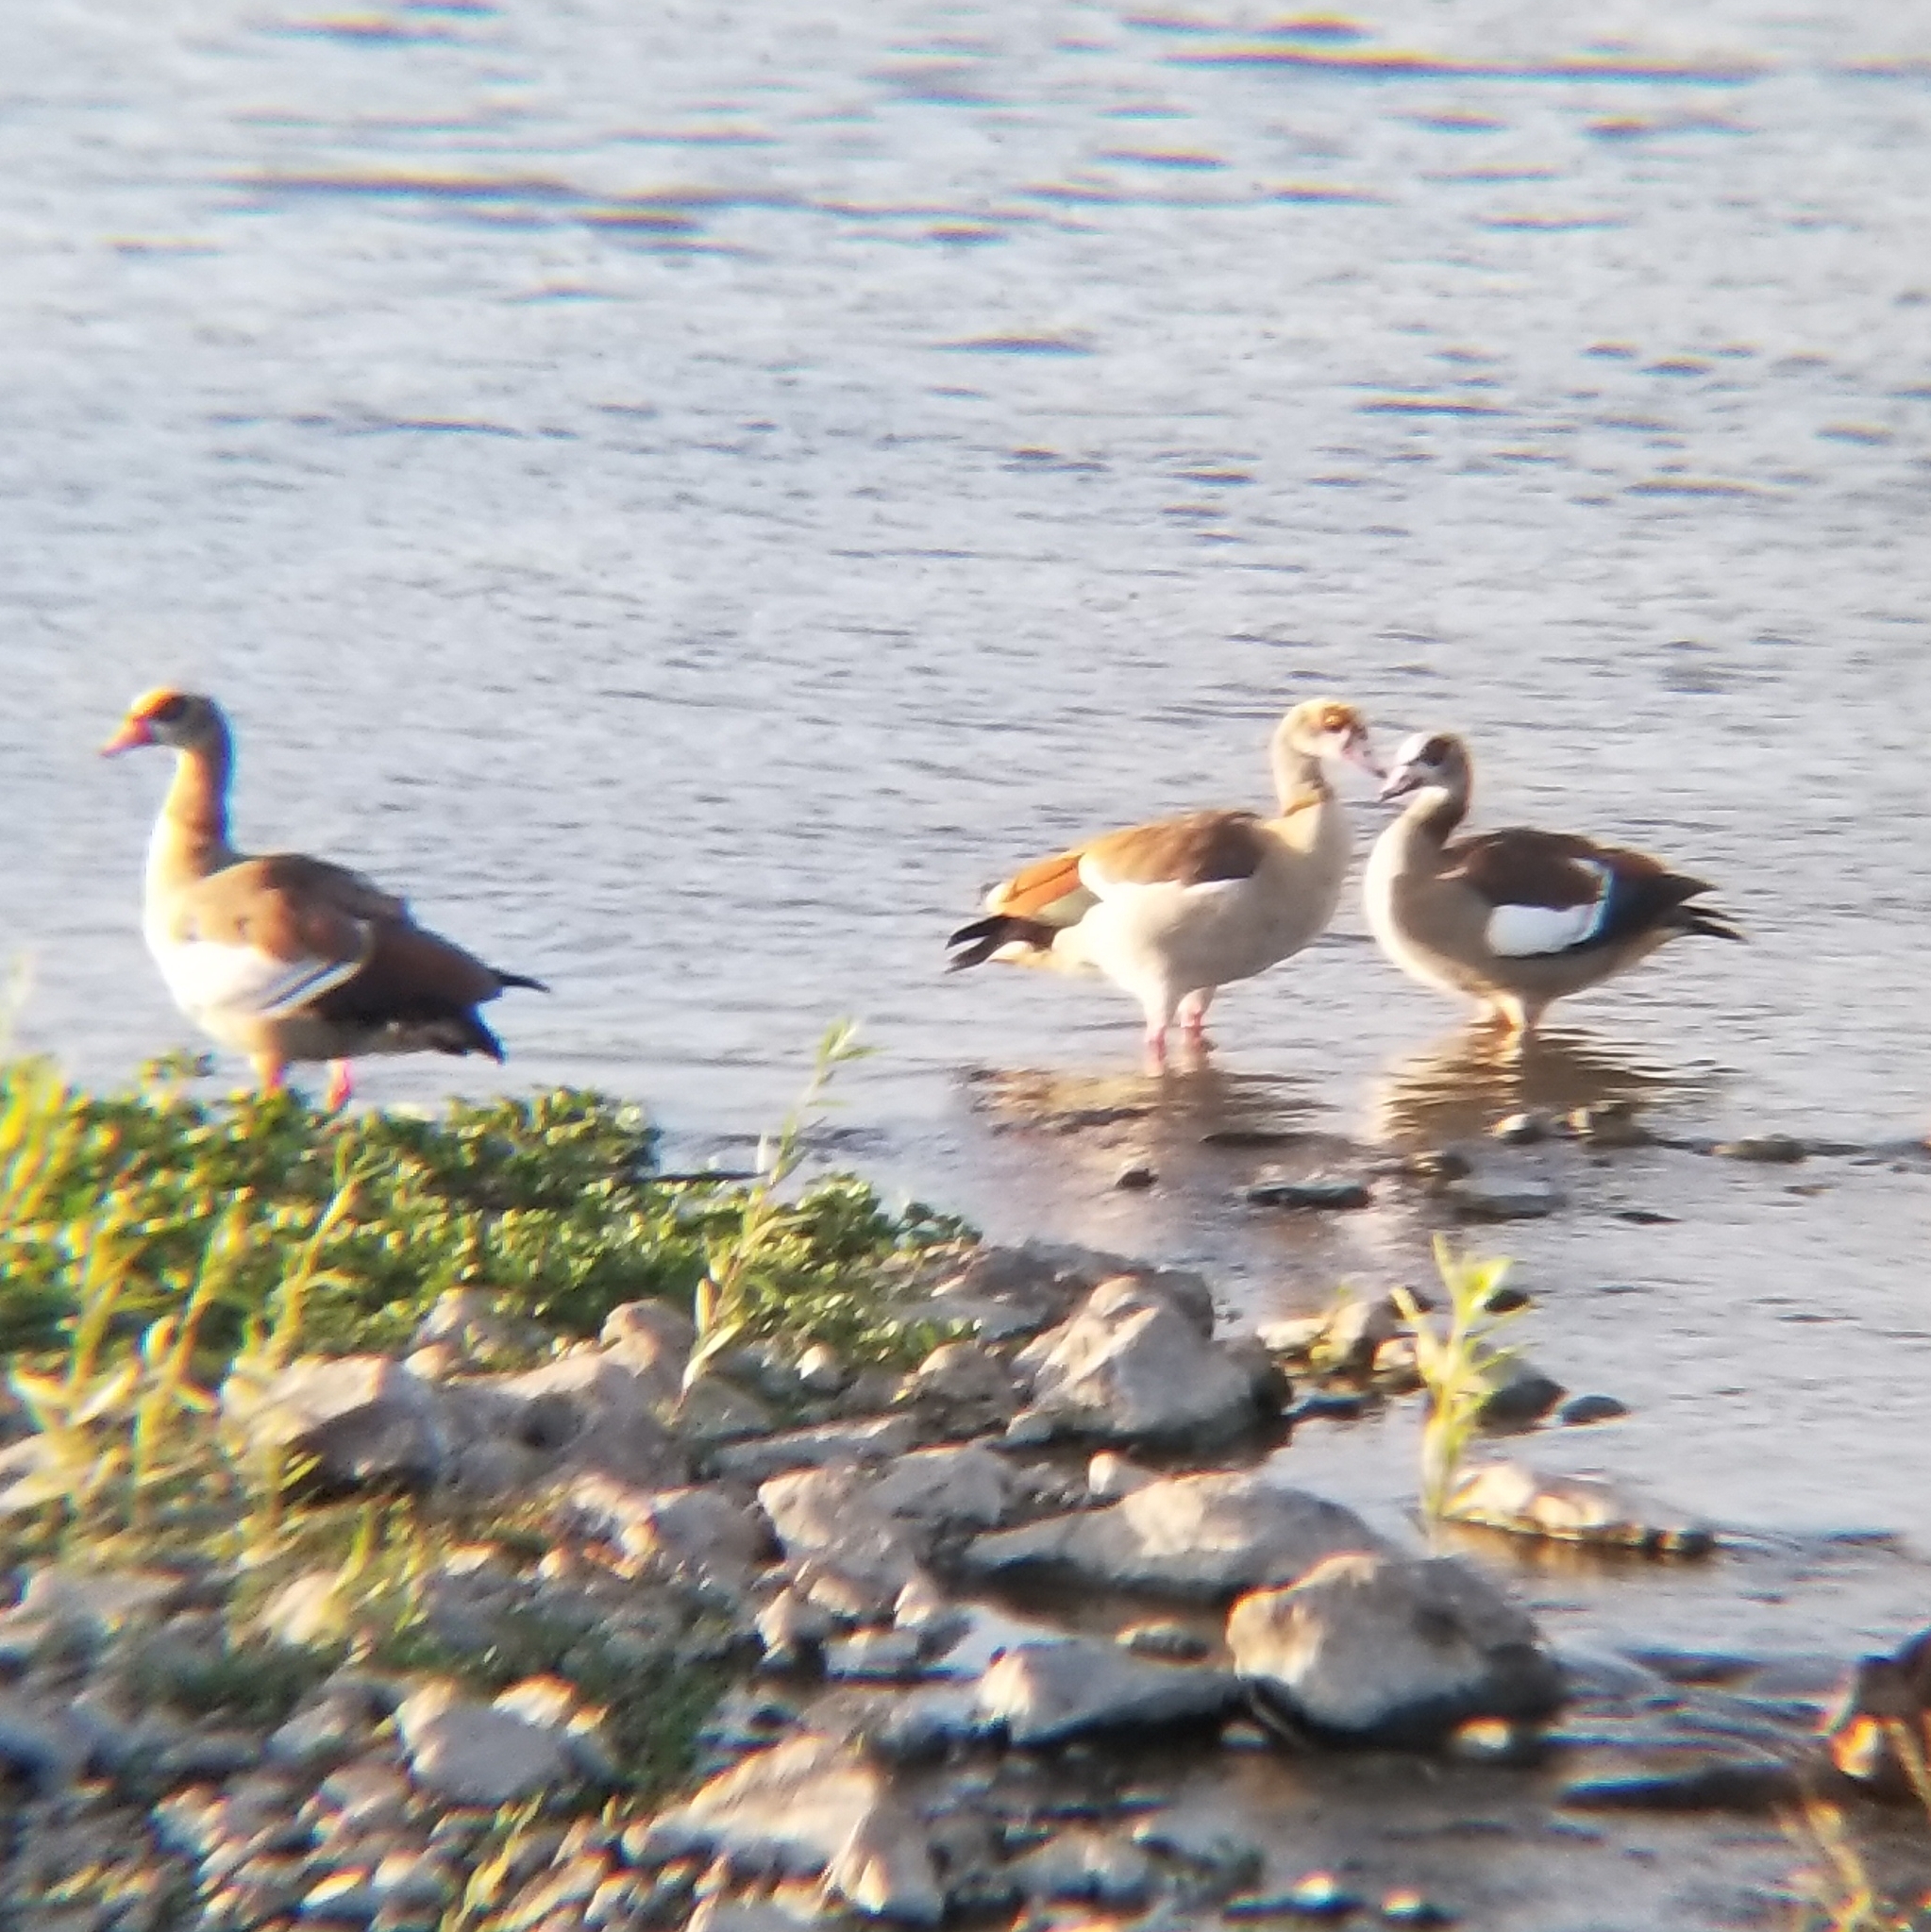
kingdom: Animalia
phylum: Chordata
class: Aves
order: Anseriformes
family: Anatidae
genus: Alopochen
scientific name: Alopochen aegyptiaca
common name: Egyptian goose
